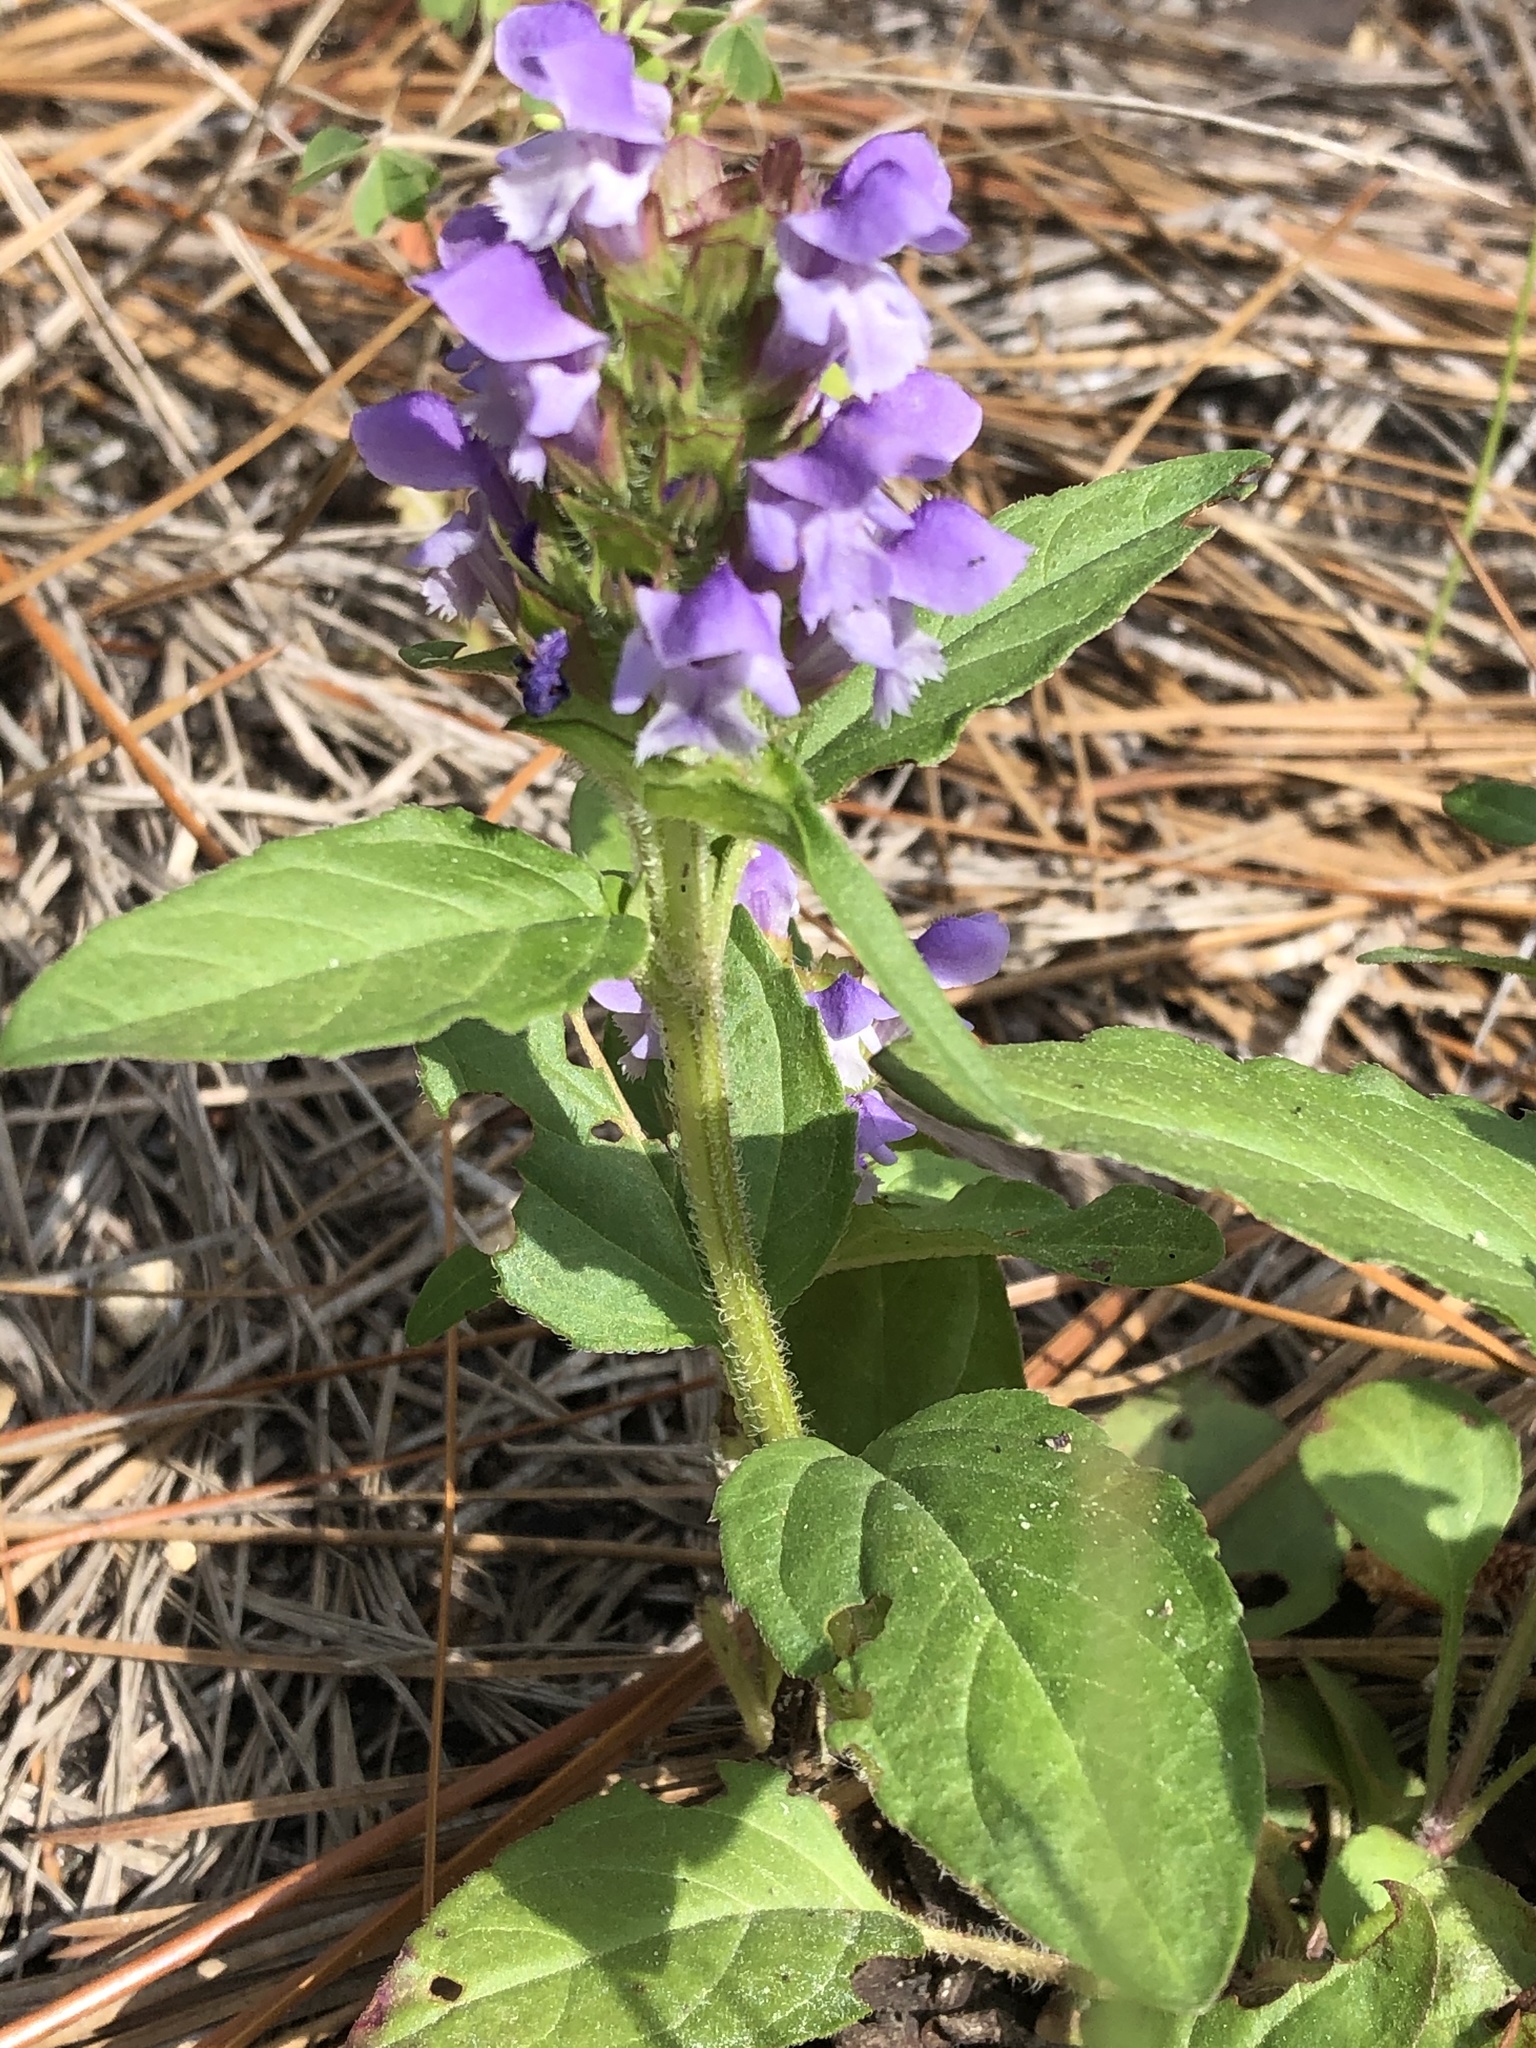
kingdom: Plantae
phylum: Tracheophyta
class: Magnoliopsida
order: Lamiales
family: Lamiaceae
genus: Prunella
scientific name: Prunella vulgaris
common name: Heal-all
